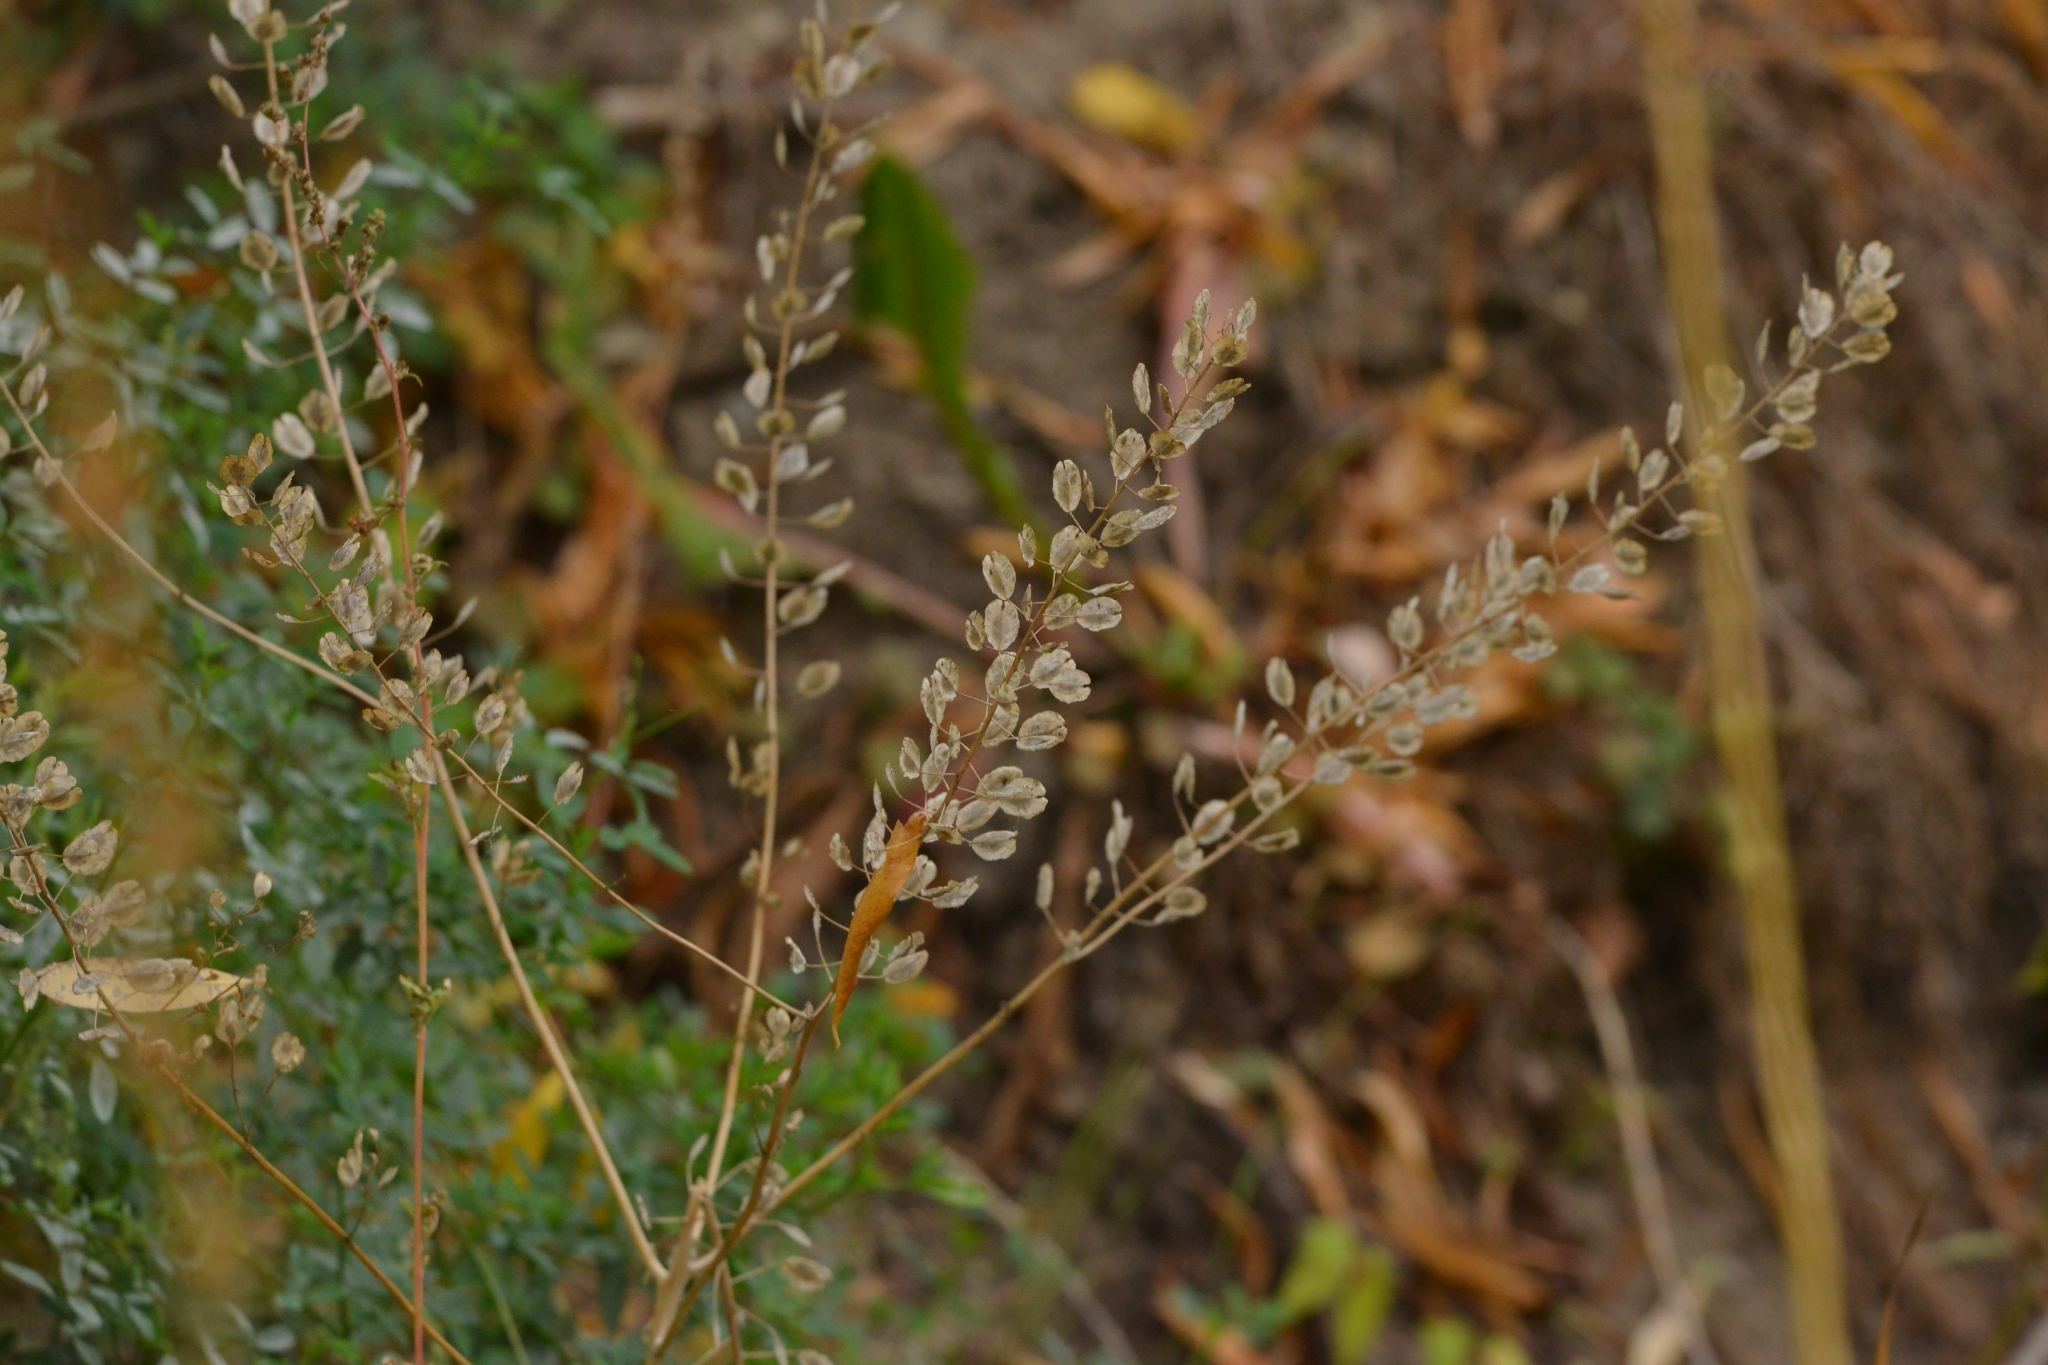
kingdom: Plantae
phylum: Tracheophyta
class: Magnoliopsida
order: Brassicales
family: Brassicaceae
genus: Thlaspi
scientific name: Thlaspi arvense
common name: Field pennycress
